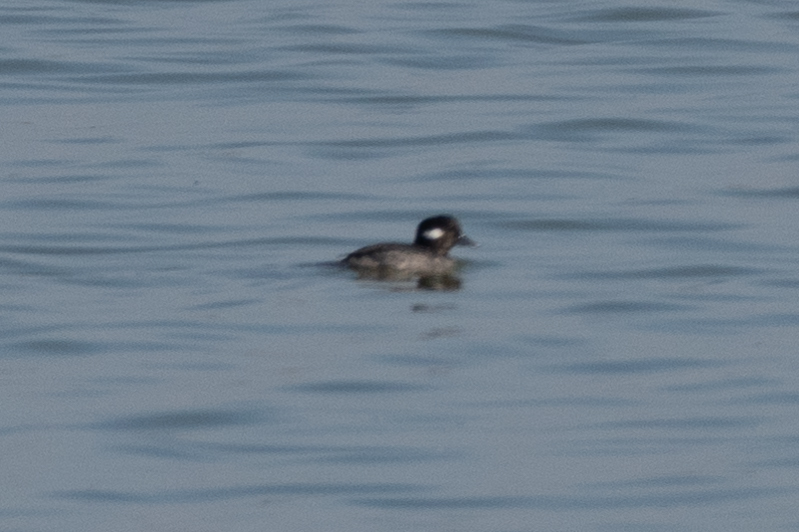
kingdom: Animalia
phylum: Chordata
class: Aves
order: Anseriformes
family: Anatidae
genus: Bucephala
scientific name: Bucephala albeola
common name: Bufflehead
